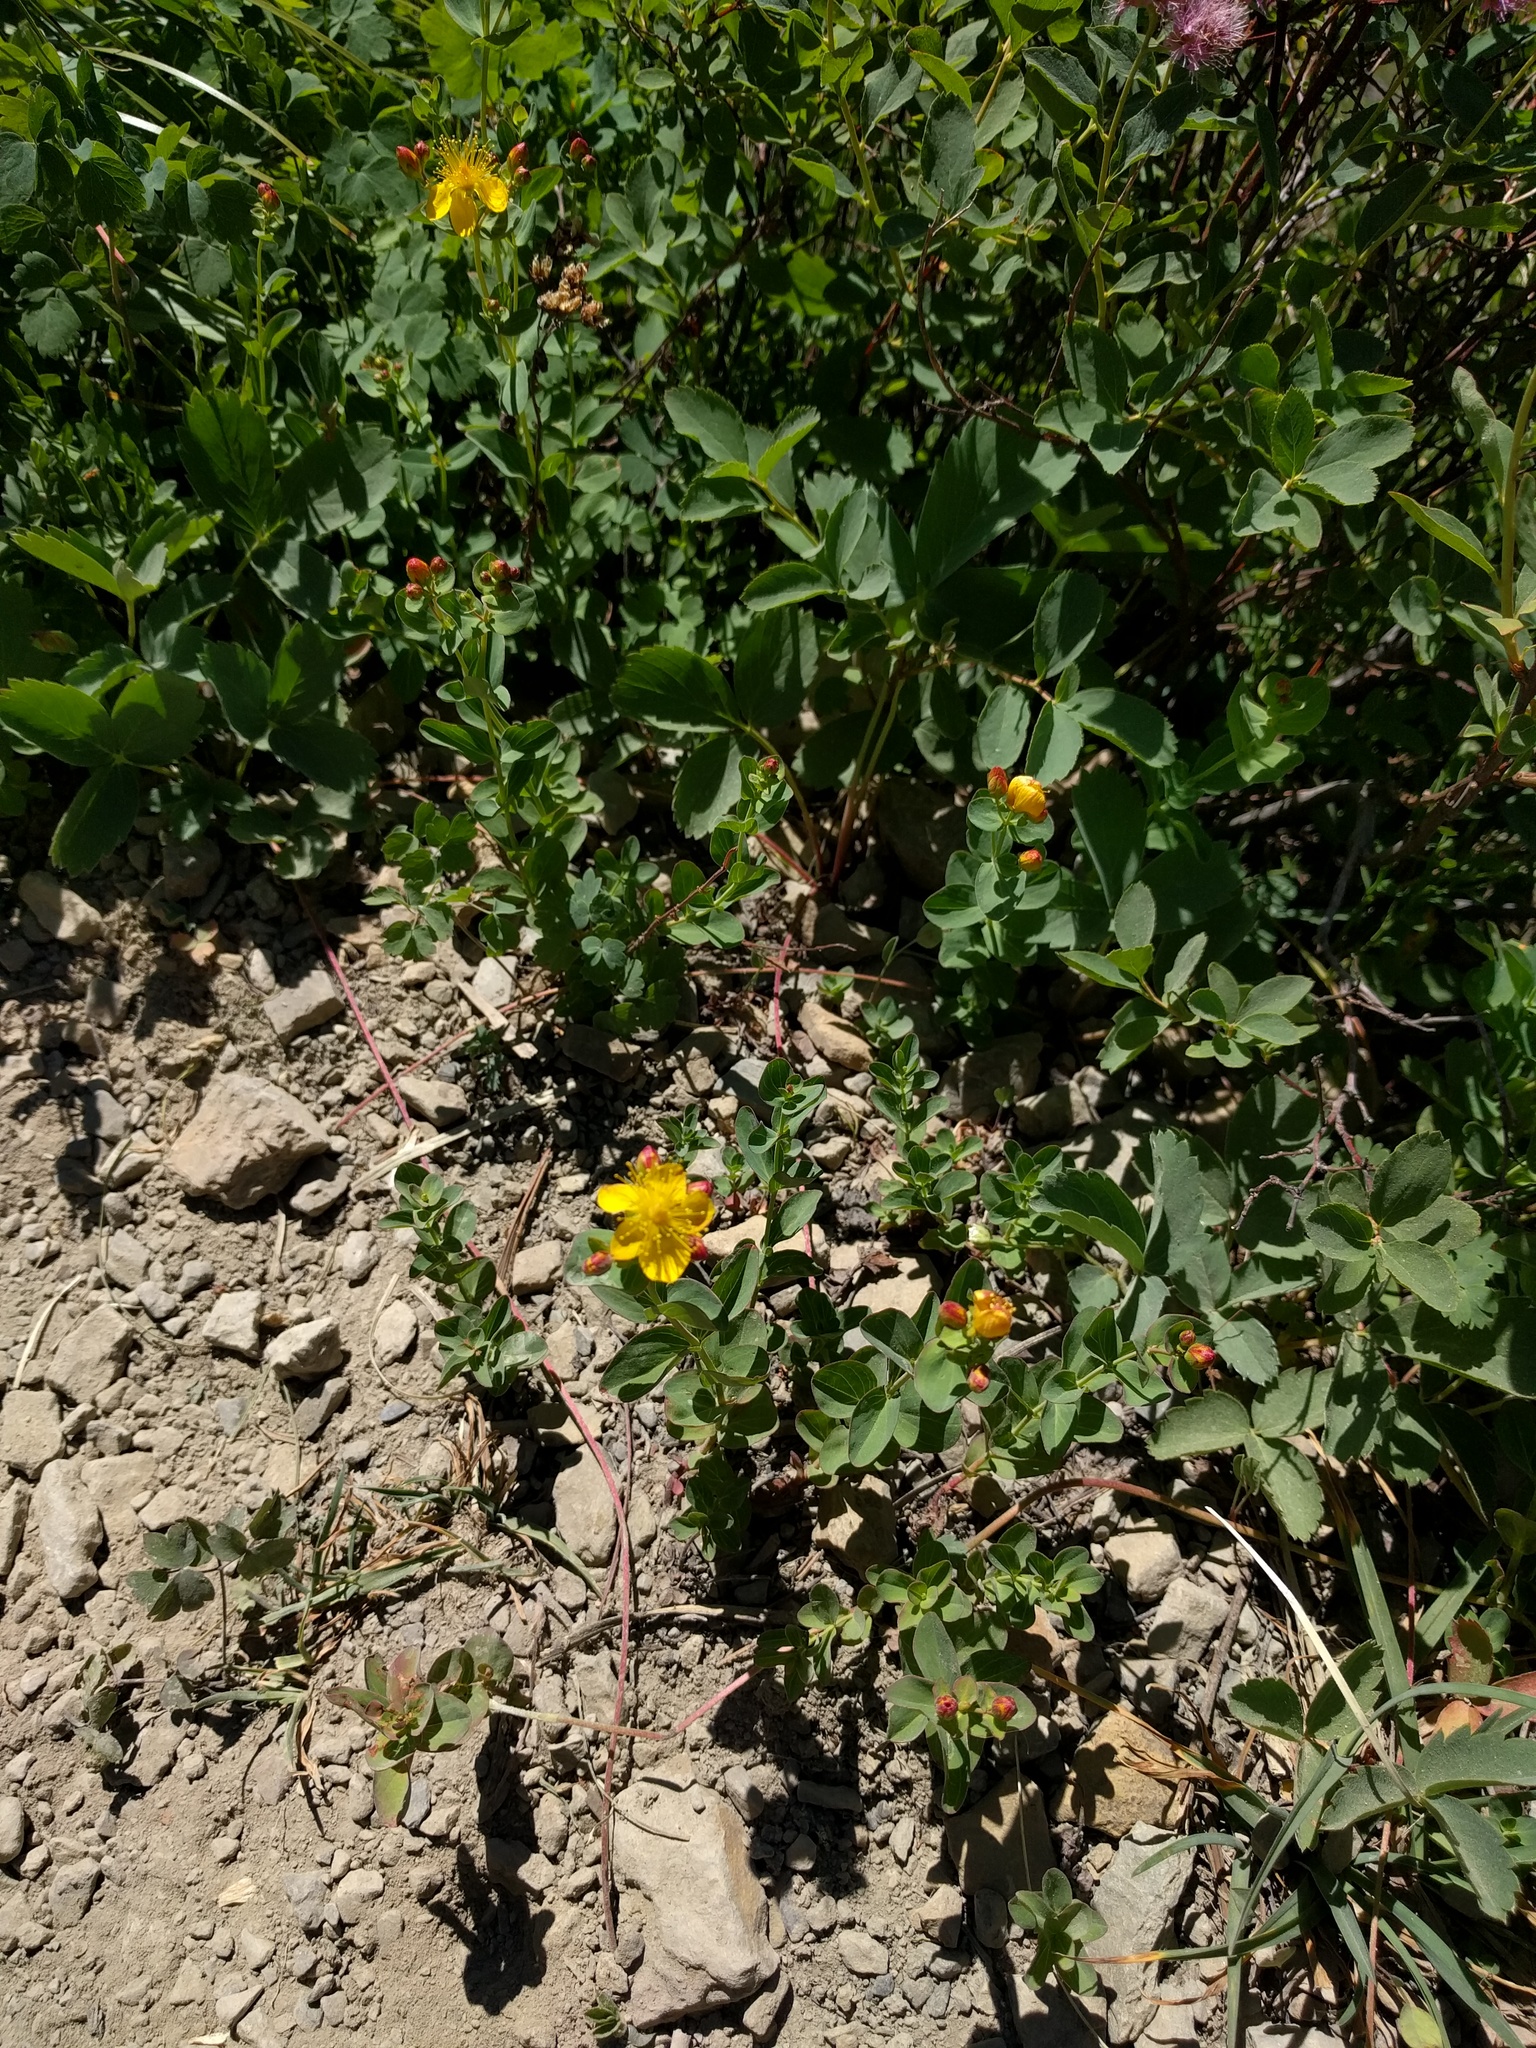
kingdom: Plantae
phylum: Tracheophyta
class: Magnoliopsida
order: Malpighiales
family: Hypericaceae
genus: Hypericum
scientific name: Hypericum scouleri
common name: Scouler's st. john's-wort
